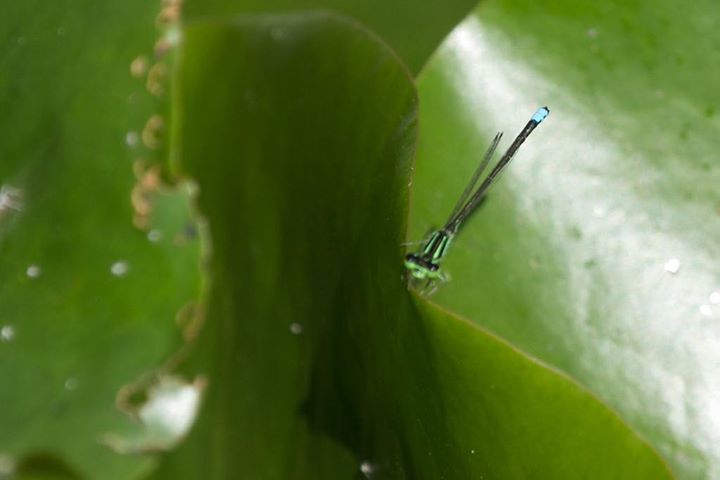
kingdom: Animalia
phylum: Arthropoda
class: Insecta
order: Odonata
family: Coenagrionidae
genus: Ischnura
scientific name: Ischnura verticalis
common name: Eastern forktail
